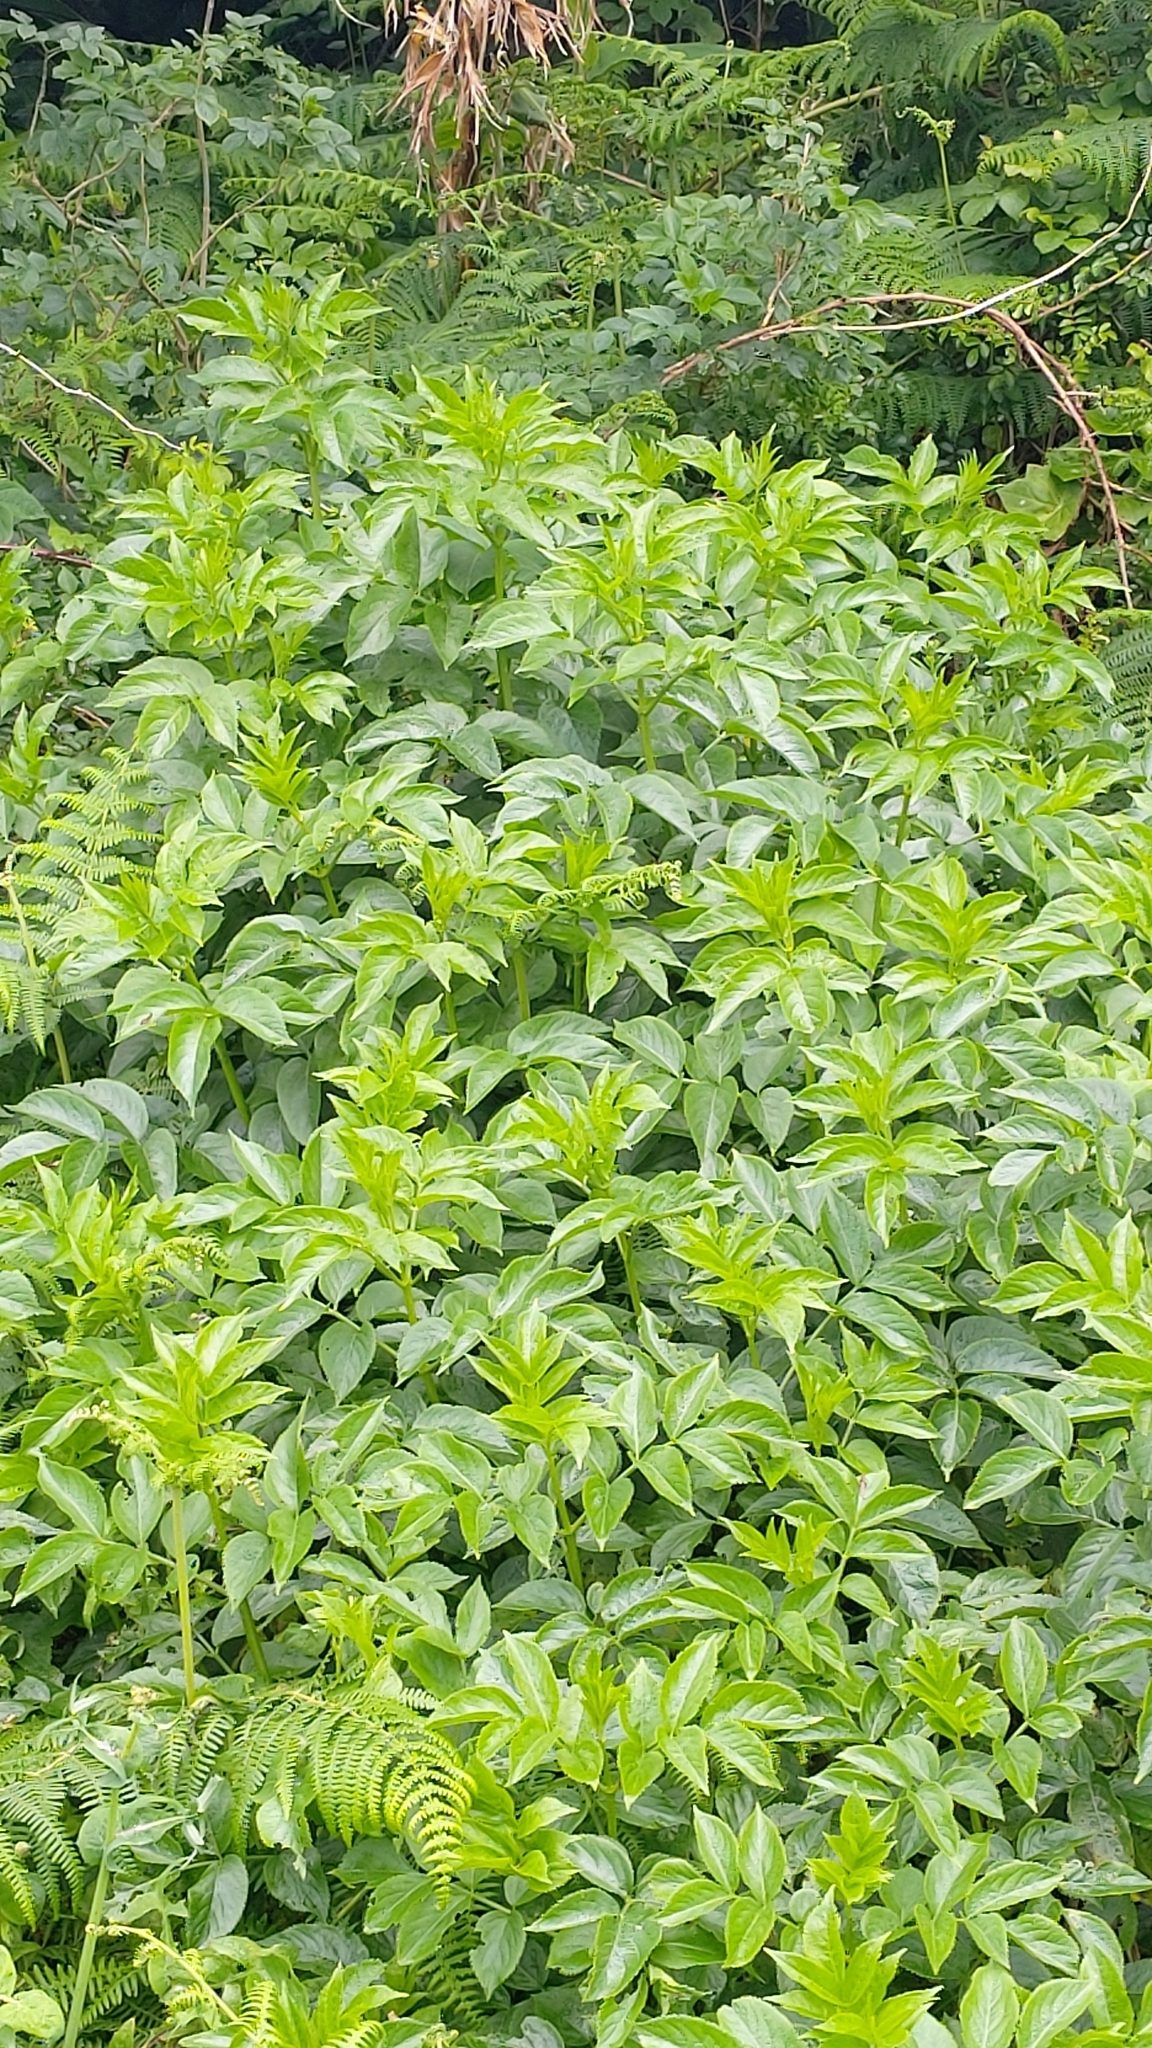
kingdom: Plantae
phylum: Tracheophyta
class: Magnoliopsida
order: Dipsacales
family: Viburnaceae
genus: Sambucus
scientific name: Sambucus nigra
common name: Elder
